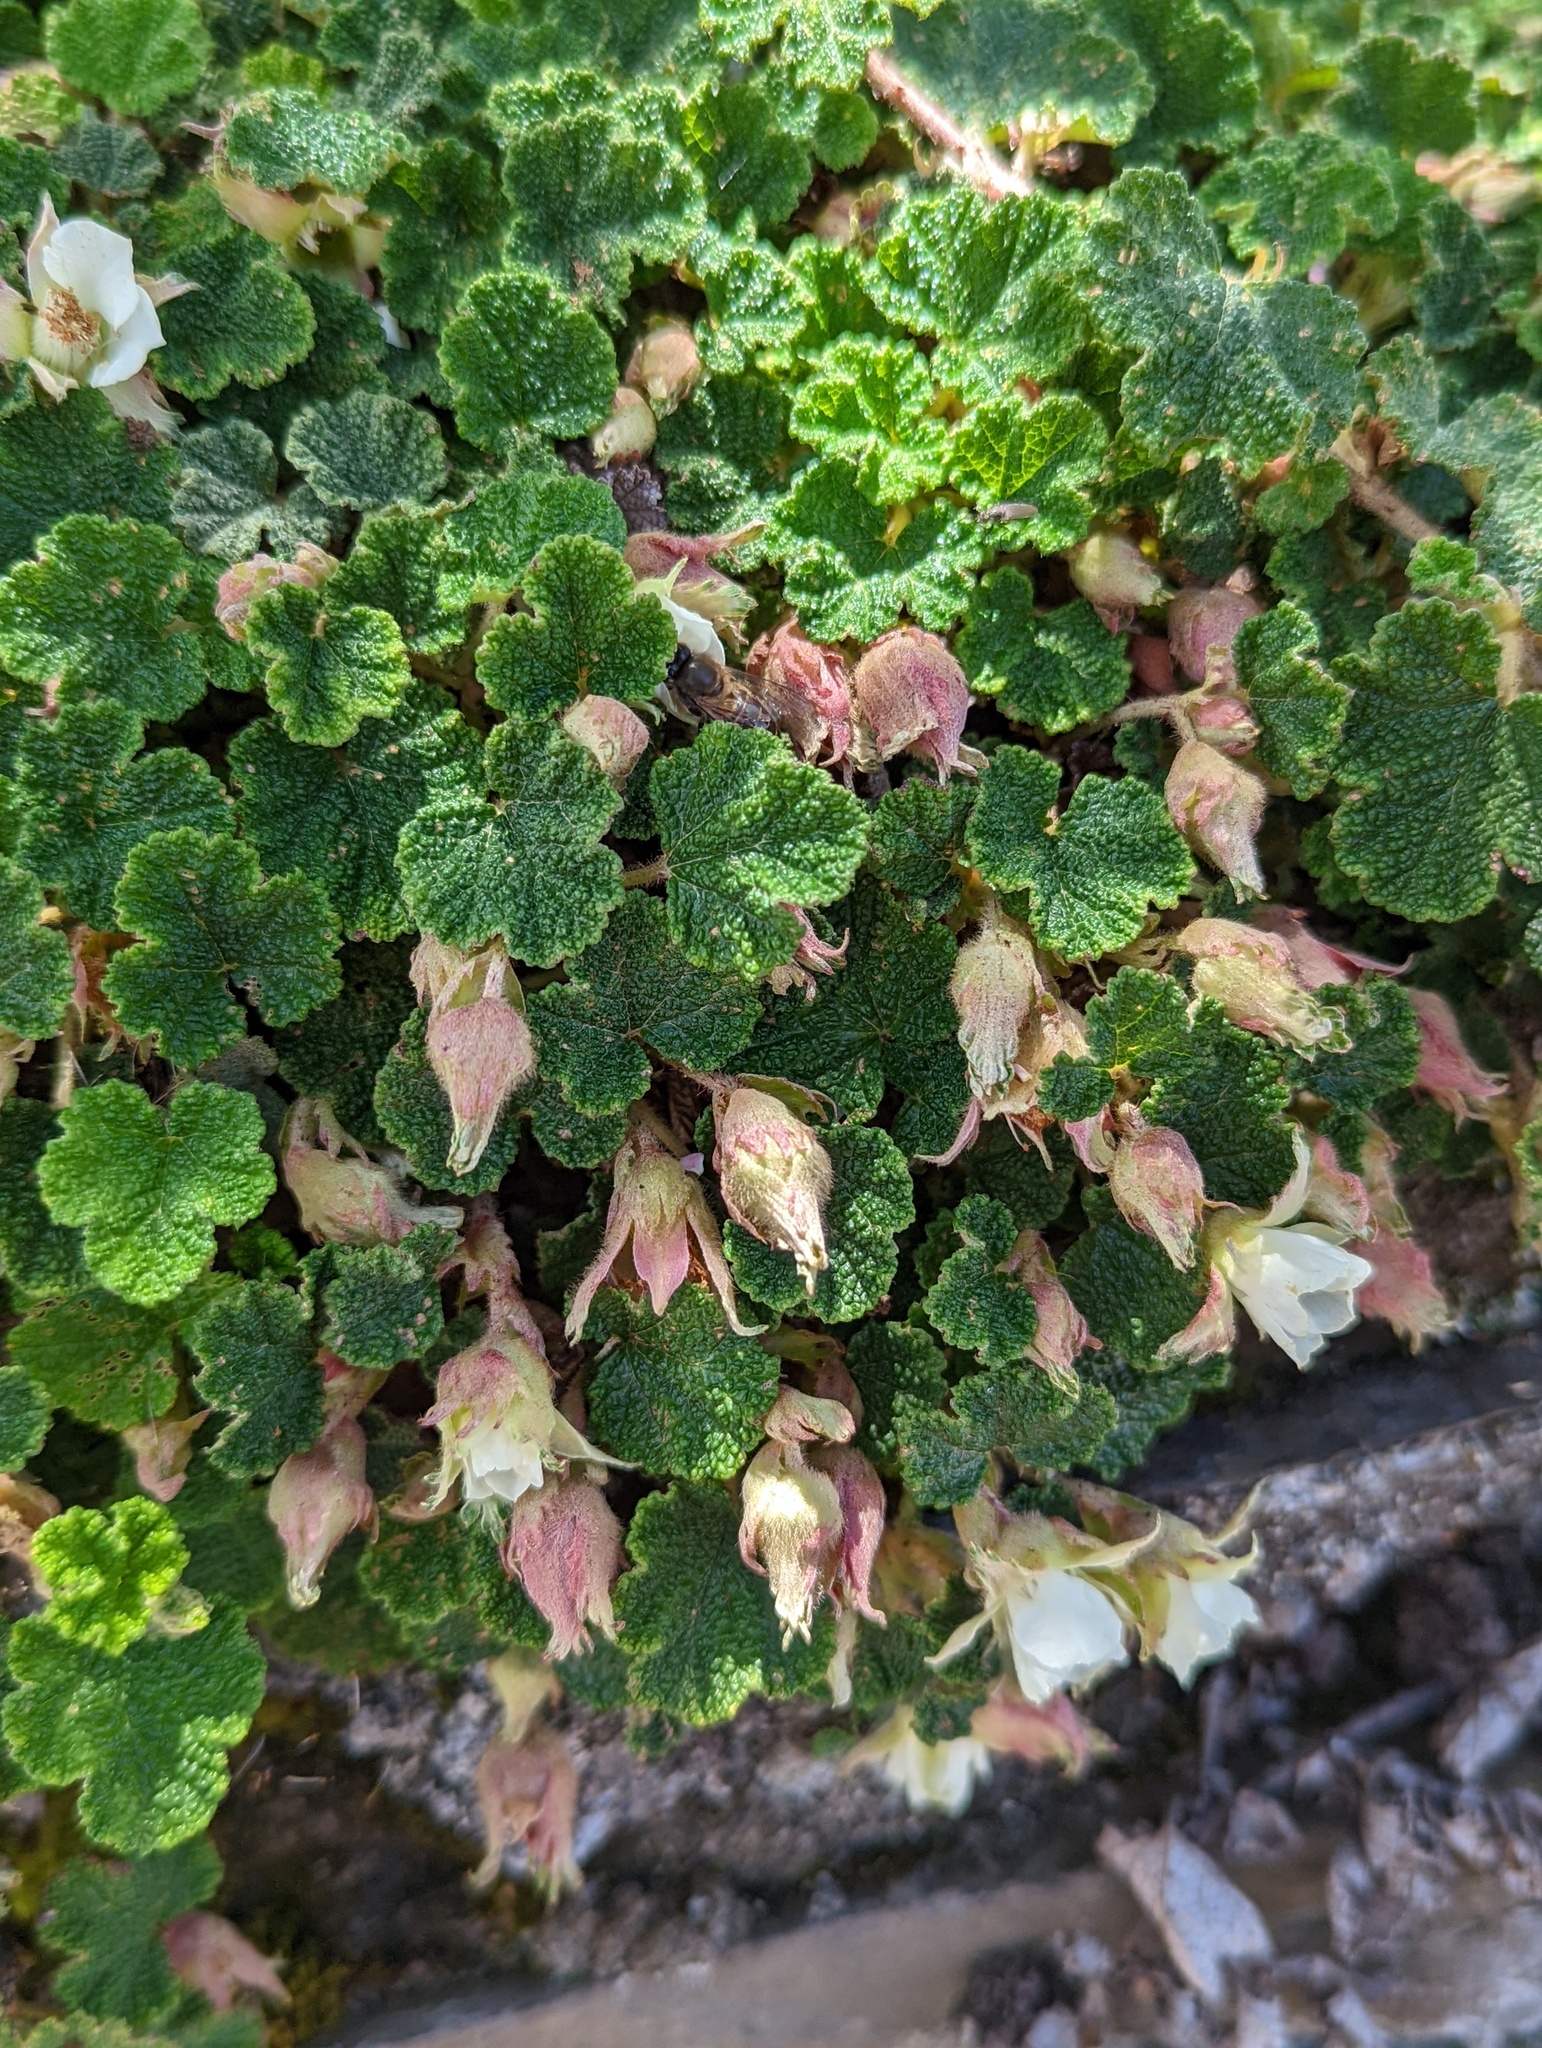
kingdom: Plantae
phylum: Tracheophyta
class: Magnoliopsida
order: Rosales
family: Rosaceae
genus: Rubus
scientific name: Rubus rolfei
